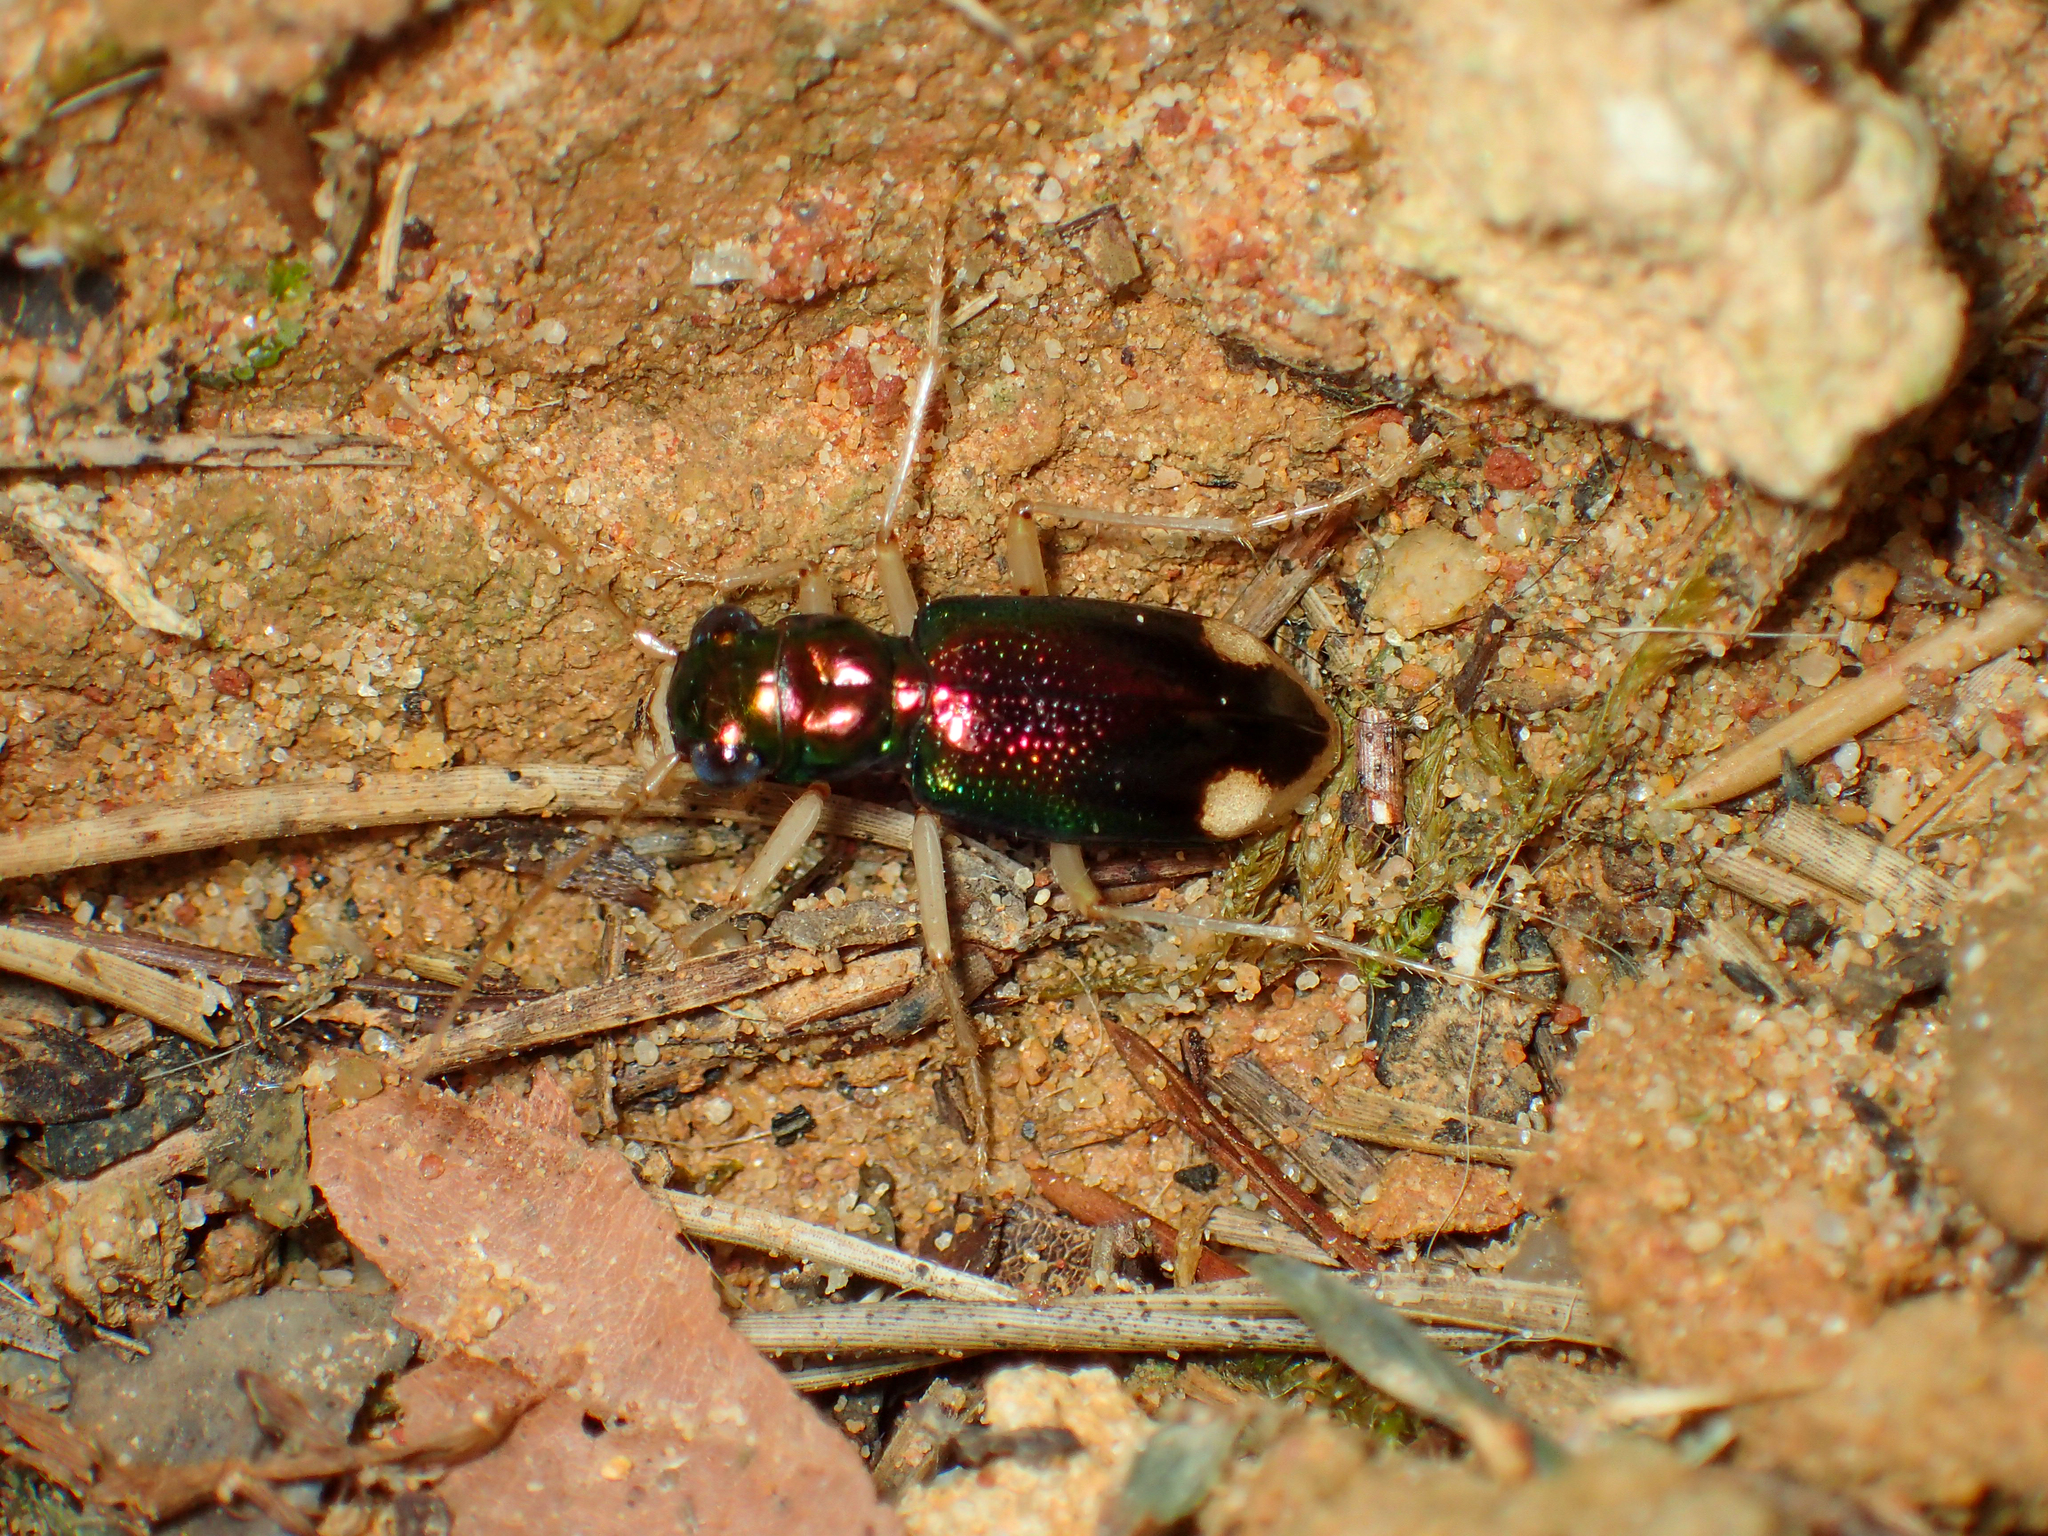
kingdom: Animalia
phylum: Arthropoda
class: Insecta
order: Coleoptera
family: Carabidae
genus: Tetracha
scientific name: Tetracha carolina
